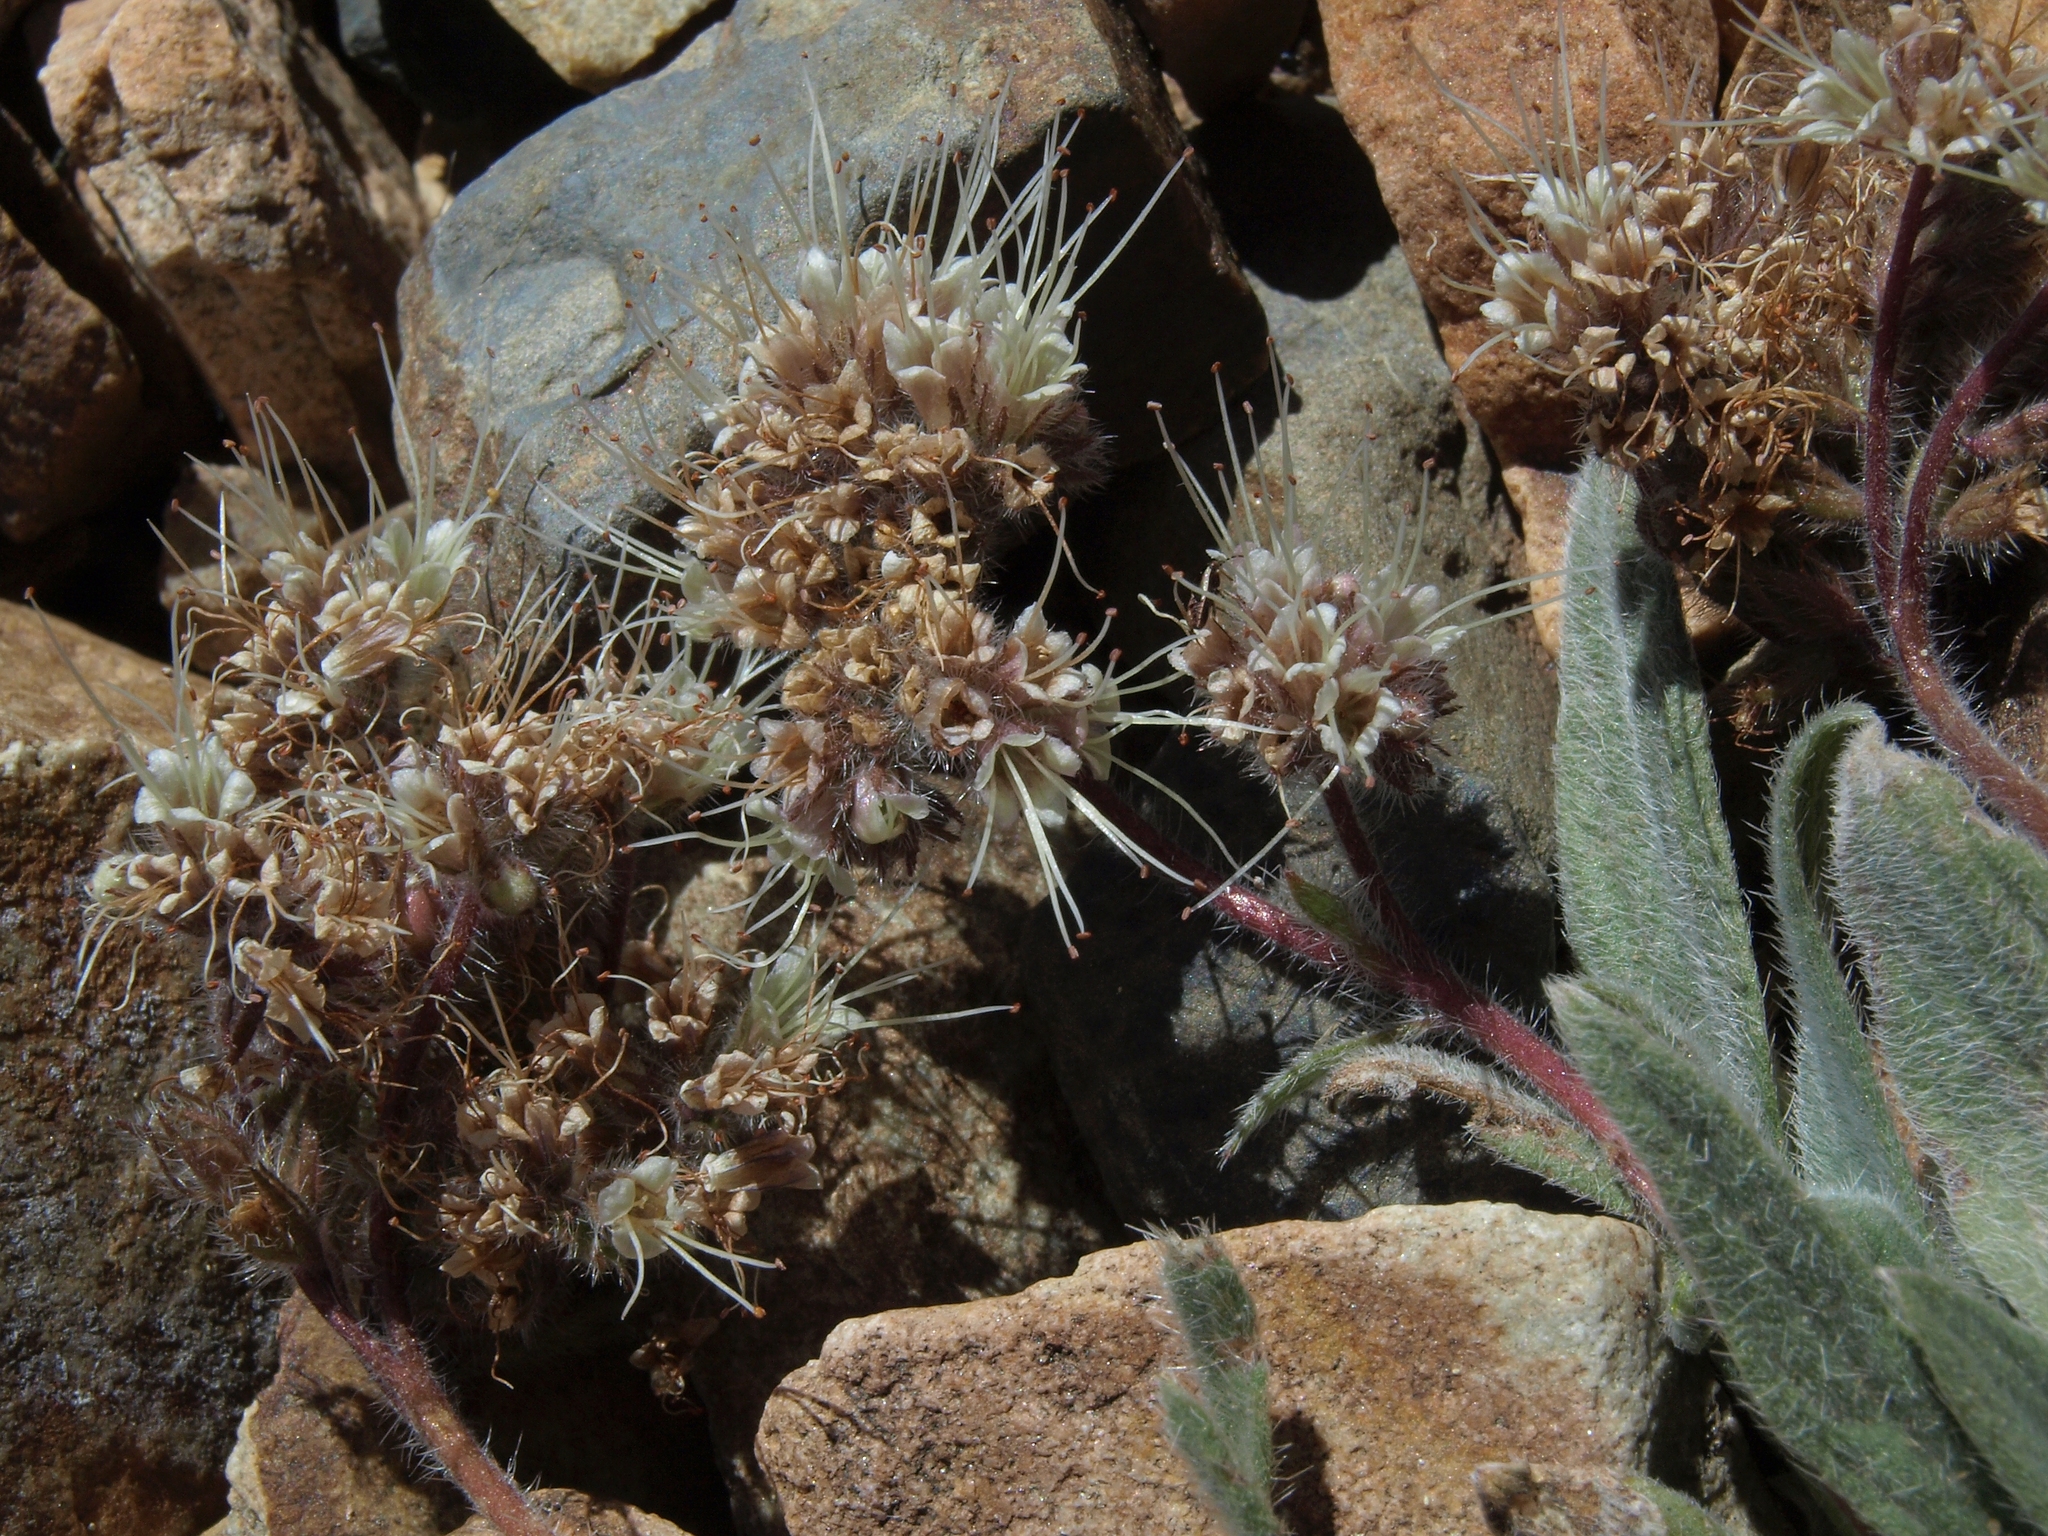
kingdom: Plantae
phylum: Tracheophyta
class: Magnoliopsida
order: Boraginales
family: Hydrophyllaceae
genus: Phacelia
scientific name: Phacelia hastata
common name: Silver-leaved phacelia
